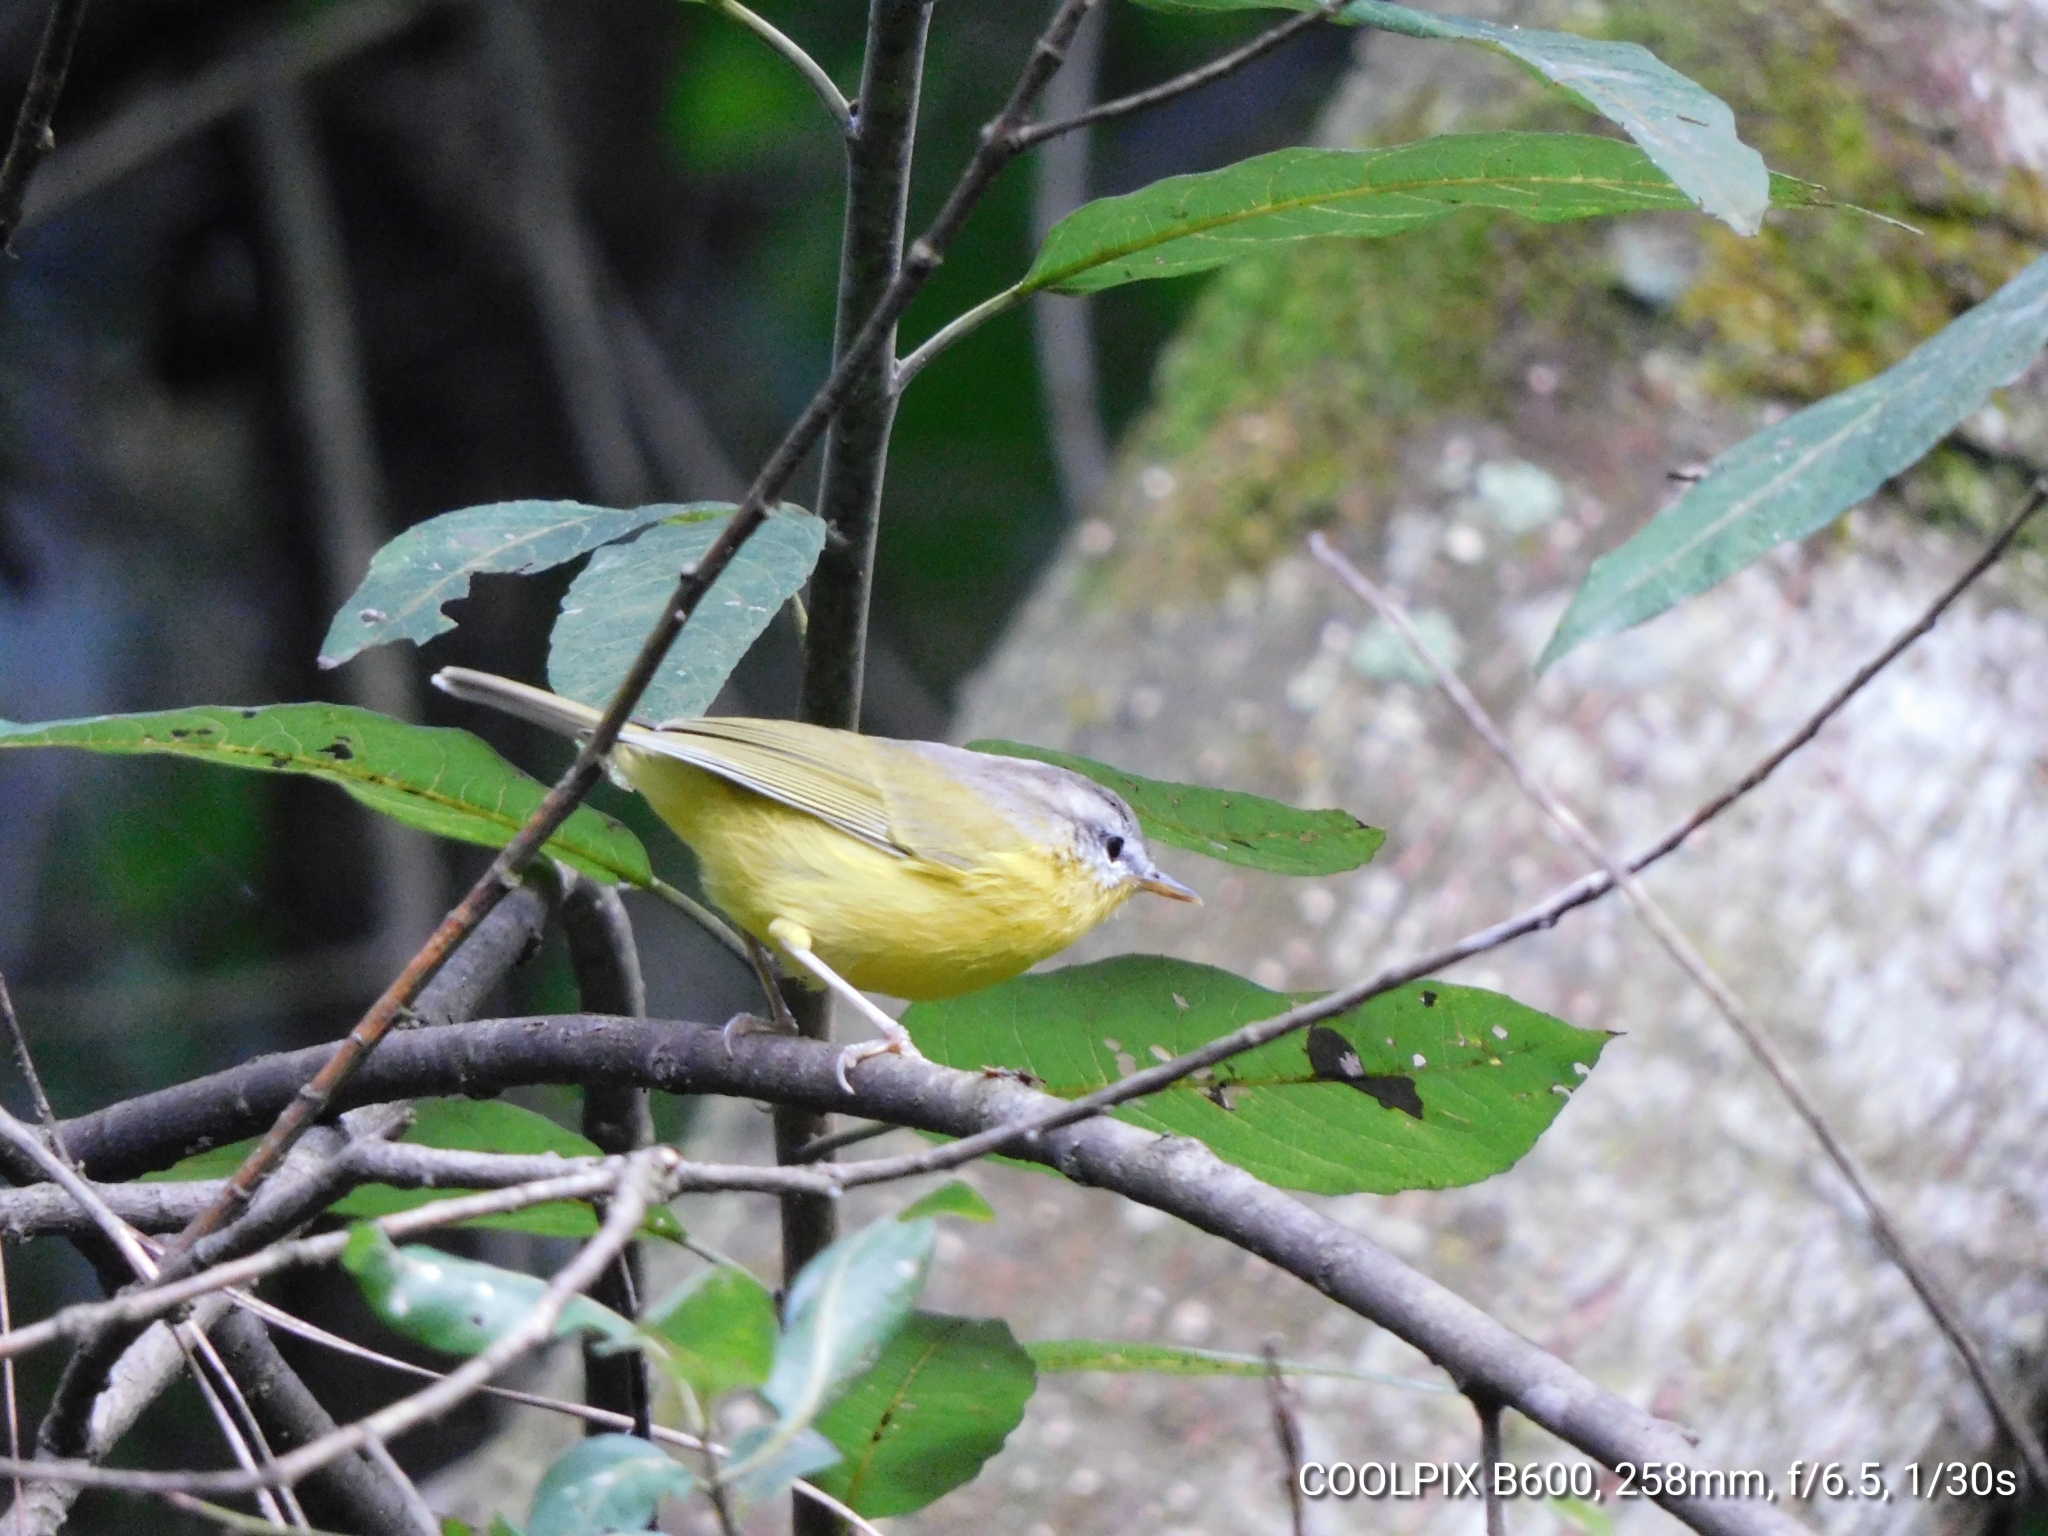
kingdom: Animalia
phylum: Chordata
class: Aves
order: Passeriformes
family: Phylloscopidae
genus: Phylloscopus
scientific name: Phylloscopus xanthoschistos
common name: Grey-hooded warbler
